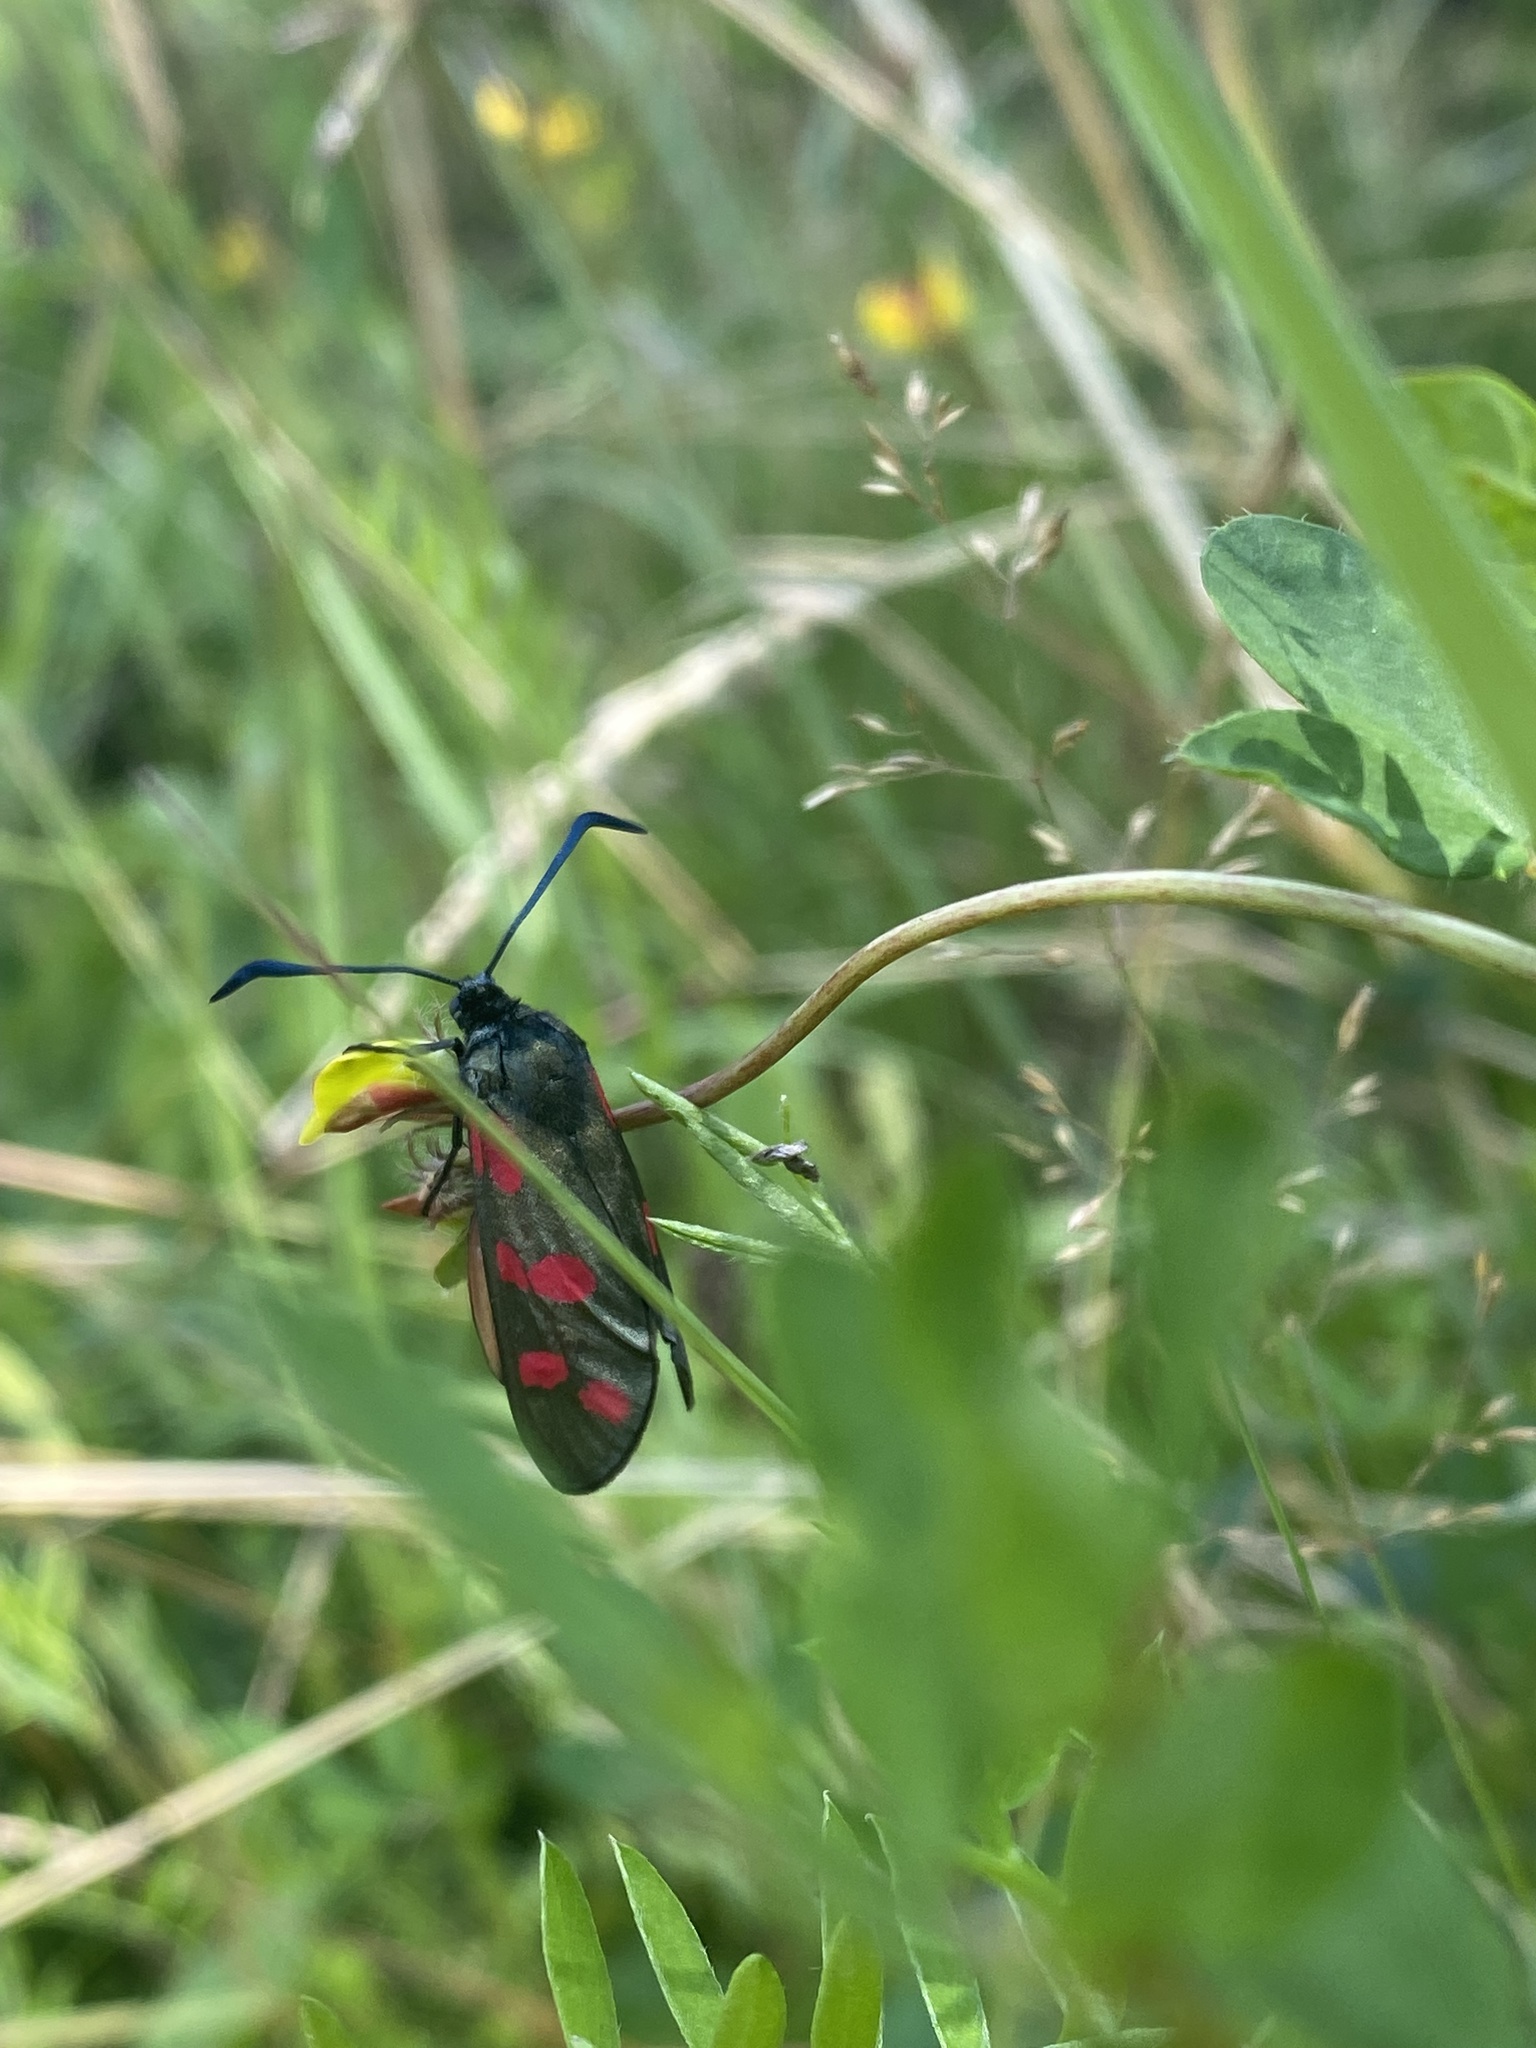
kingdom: Animalia
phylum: Arthropoda
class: Insecta
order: Lepidoptera
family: Zygaenidae
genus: Zygaena
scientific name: Zygaena filipendulae
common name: Six-spot burnet
